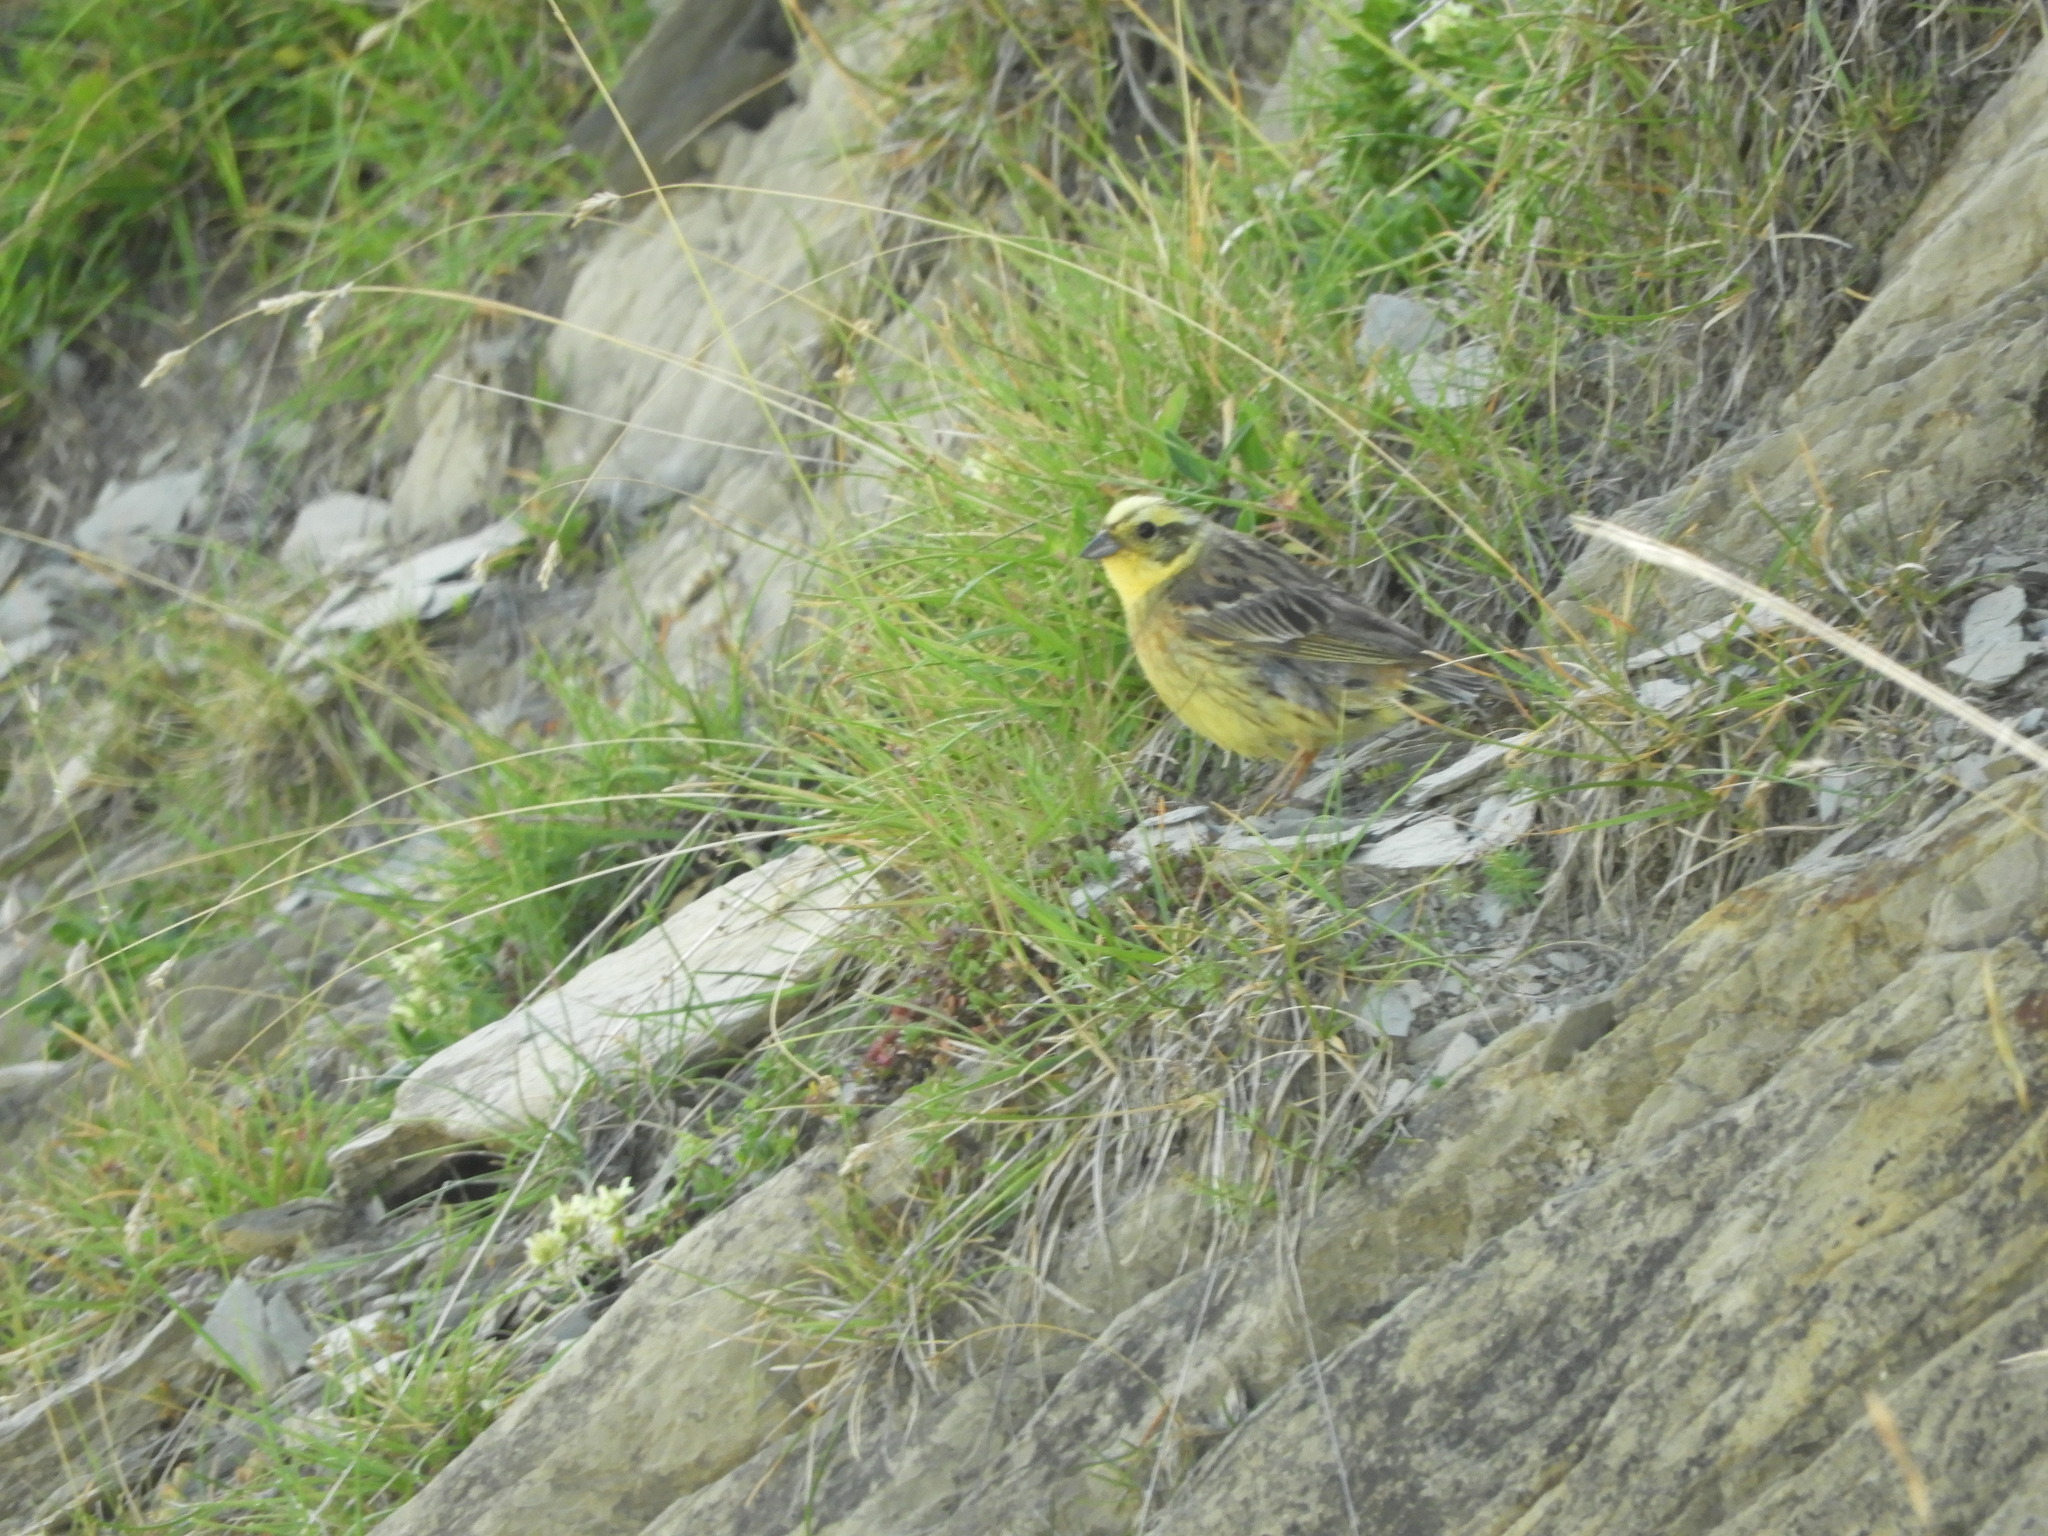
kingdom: Animalia
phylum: Chordata
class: Aves
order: Passeriformes
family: Emberizidae
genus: Emberiza
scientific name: Emberiza citrinella
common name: Yellowhammer
